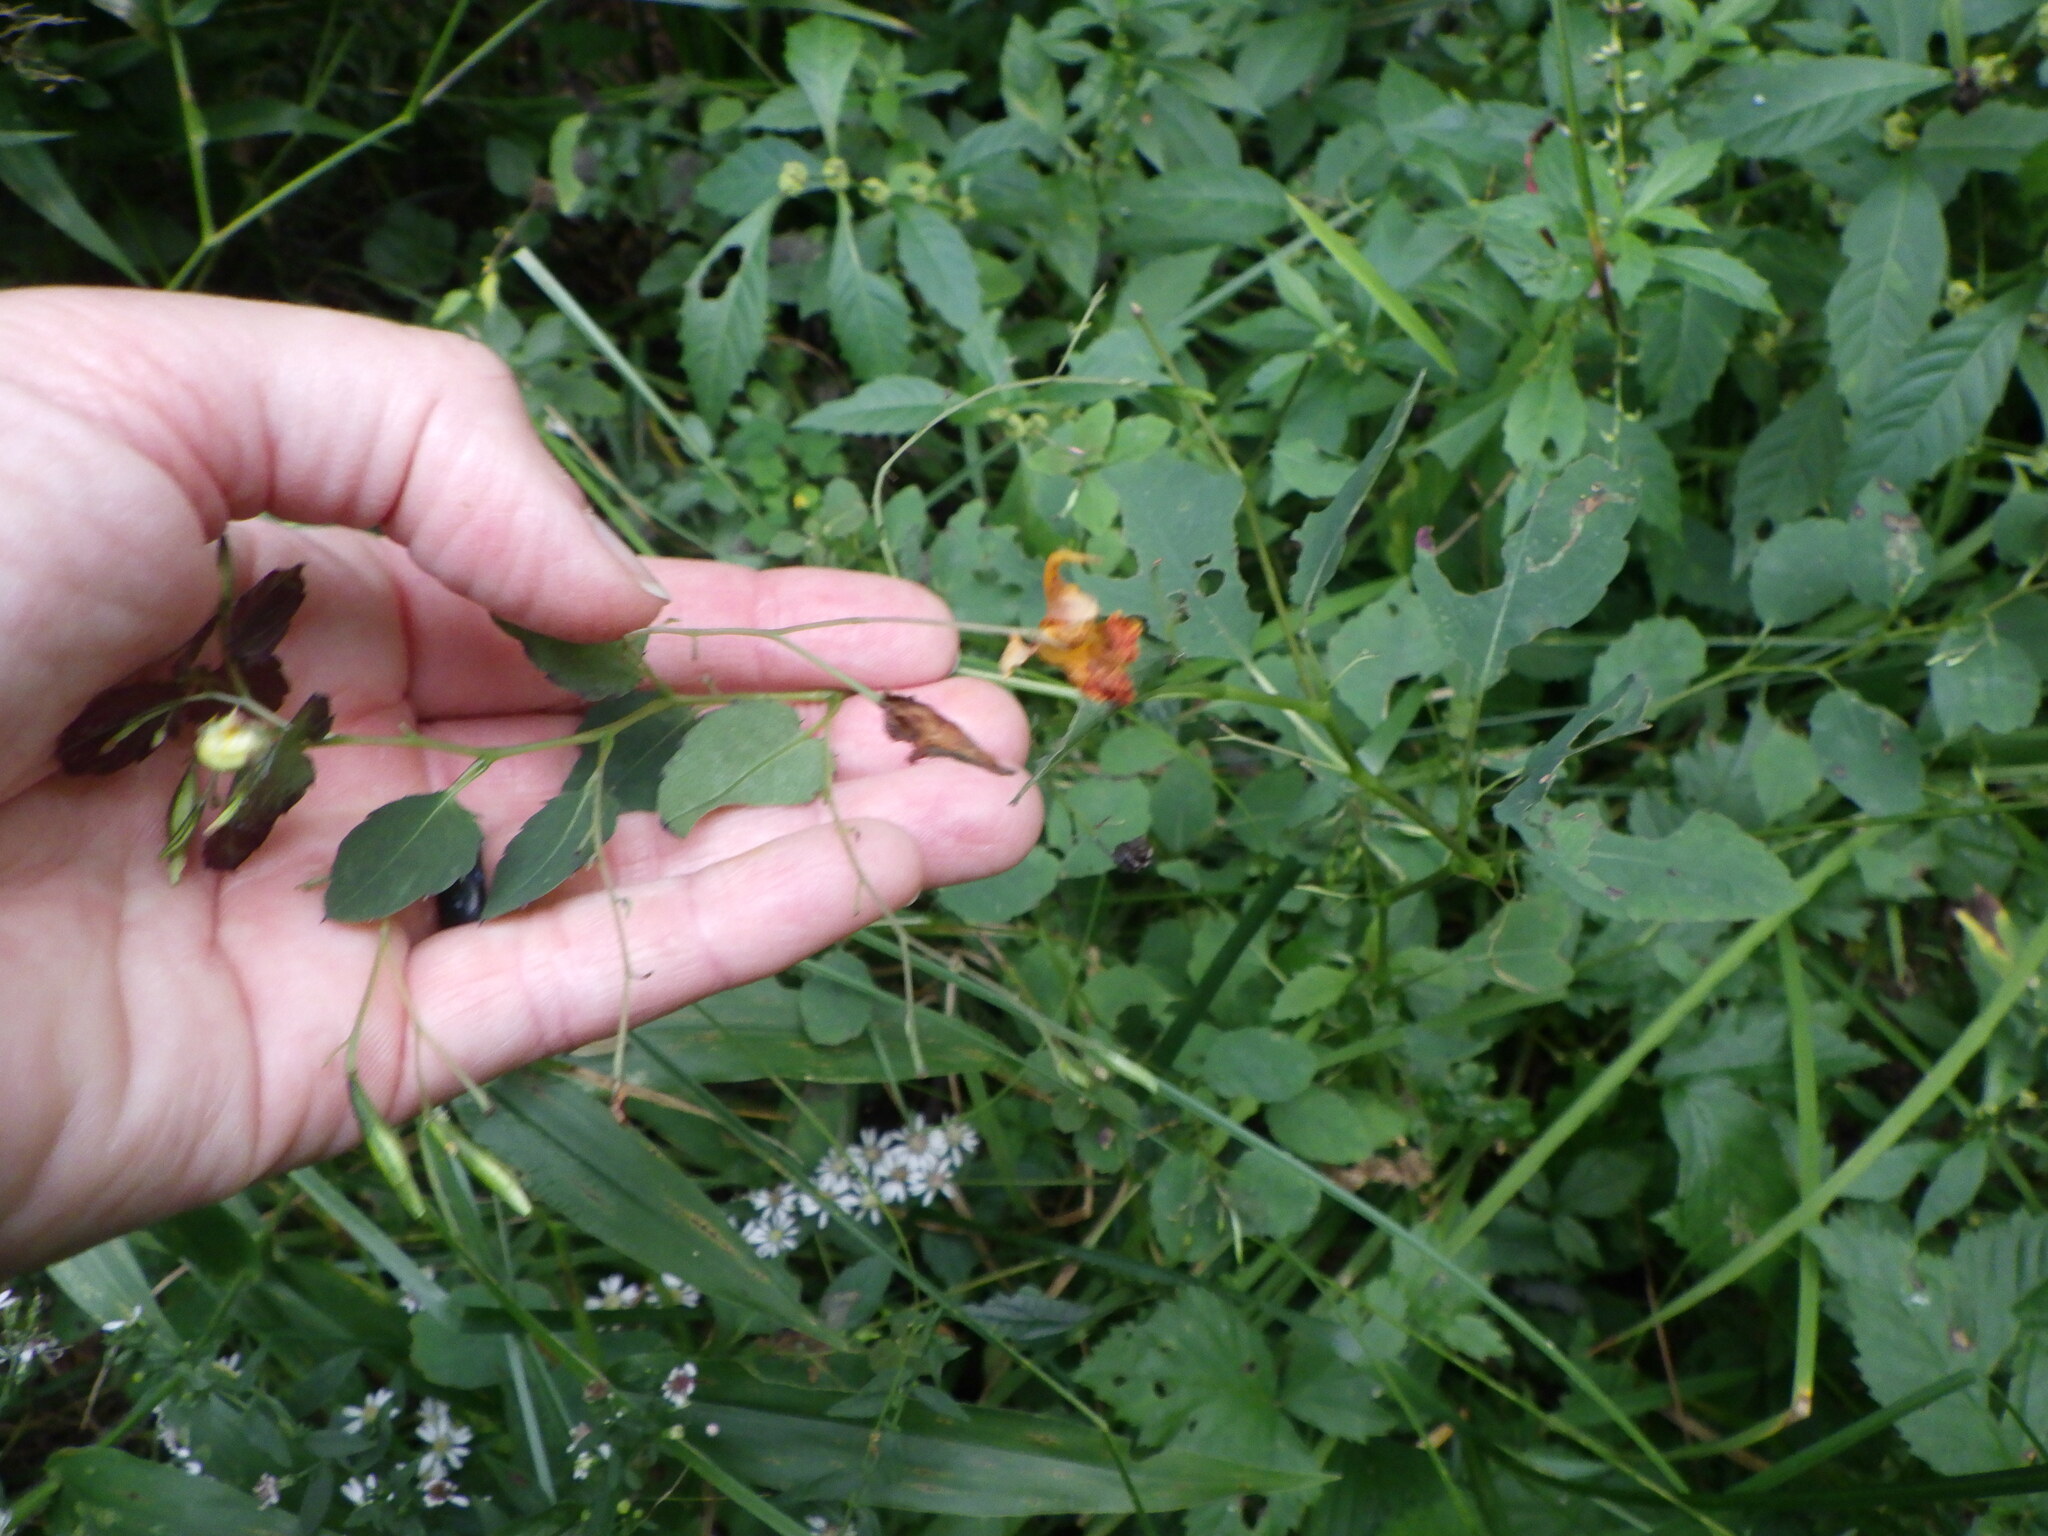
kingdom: Plantae
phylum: Tracheophyta
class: Magnoliopsida
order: Ericales
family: Balsaminaceae
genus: Impatiens
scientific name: Impatiens capensis
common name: Orange balsam
